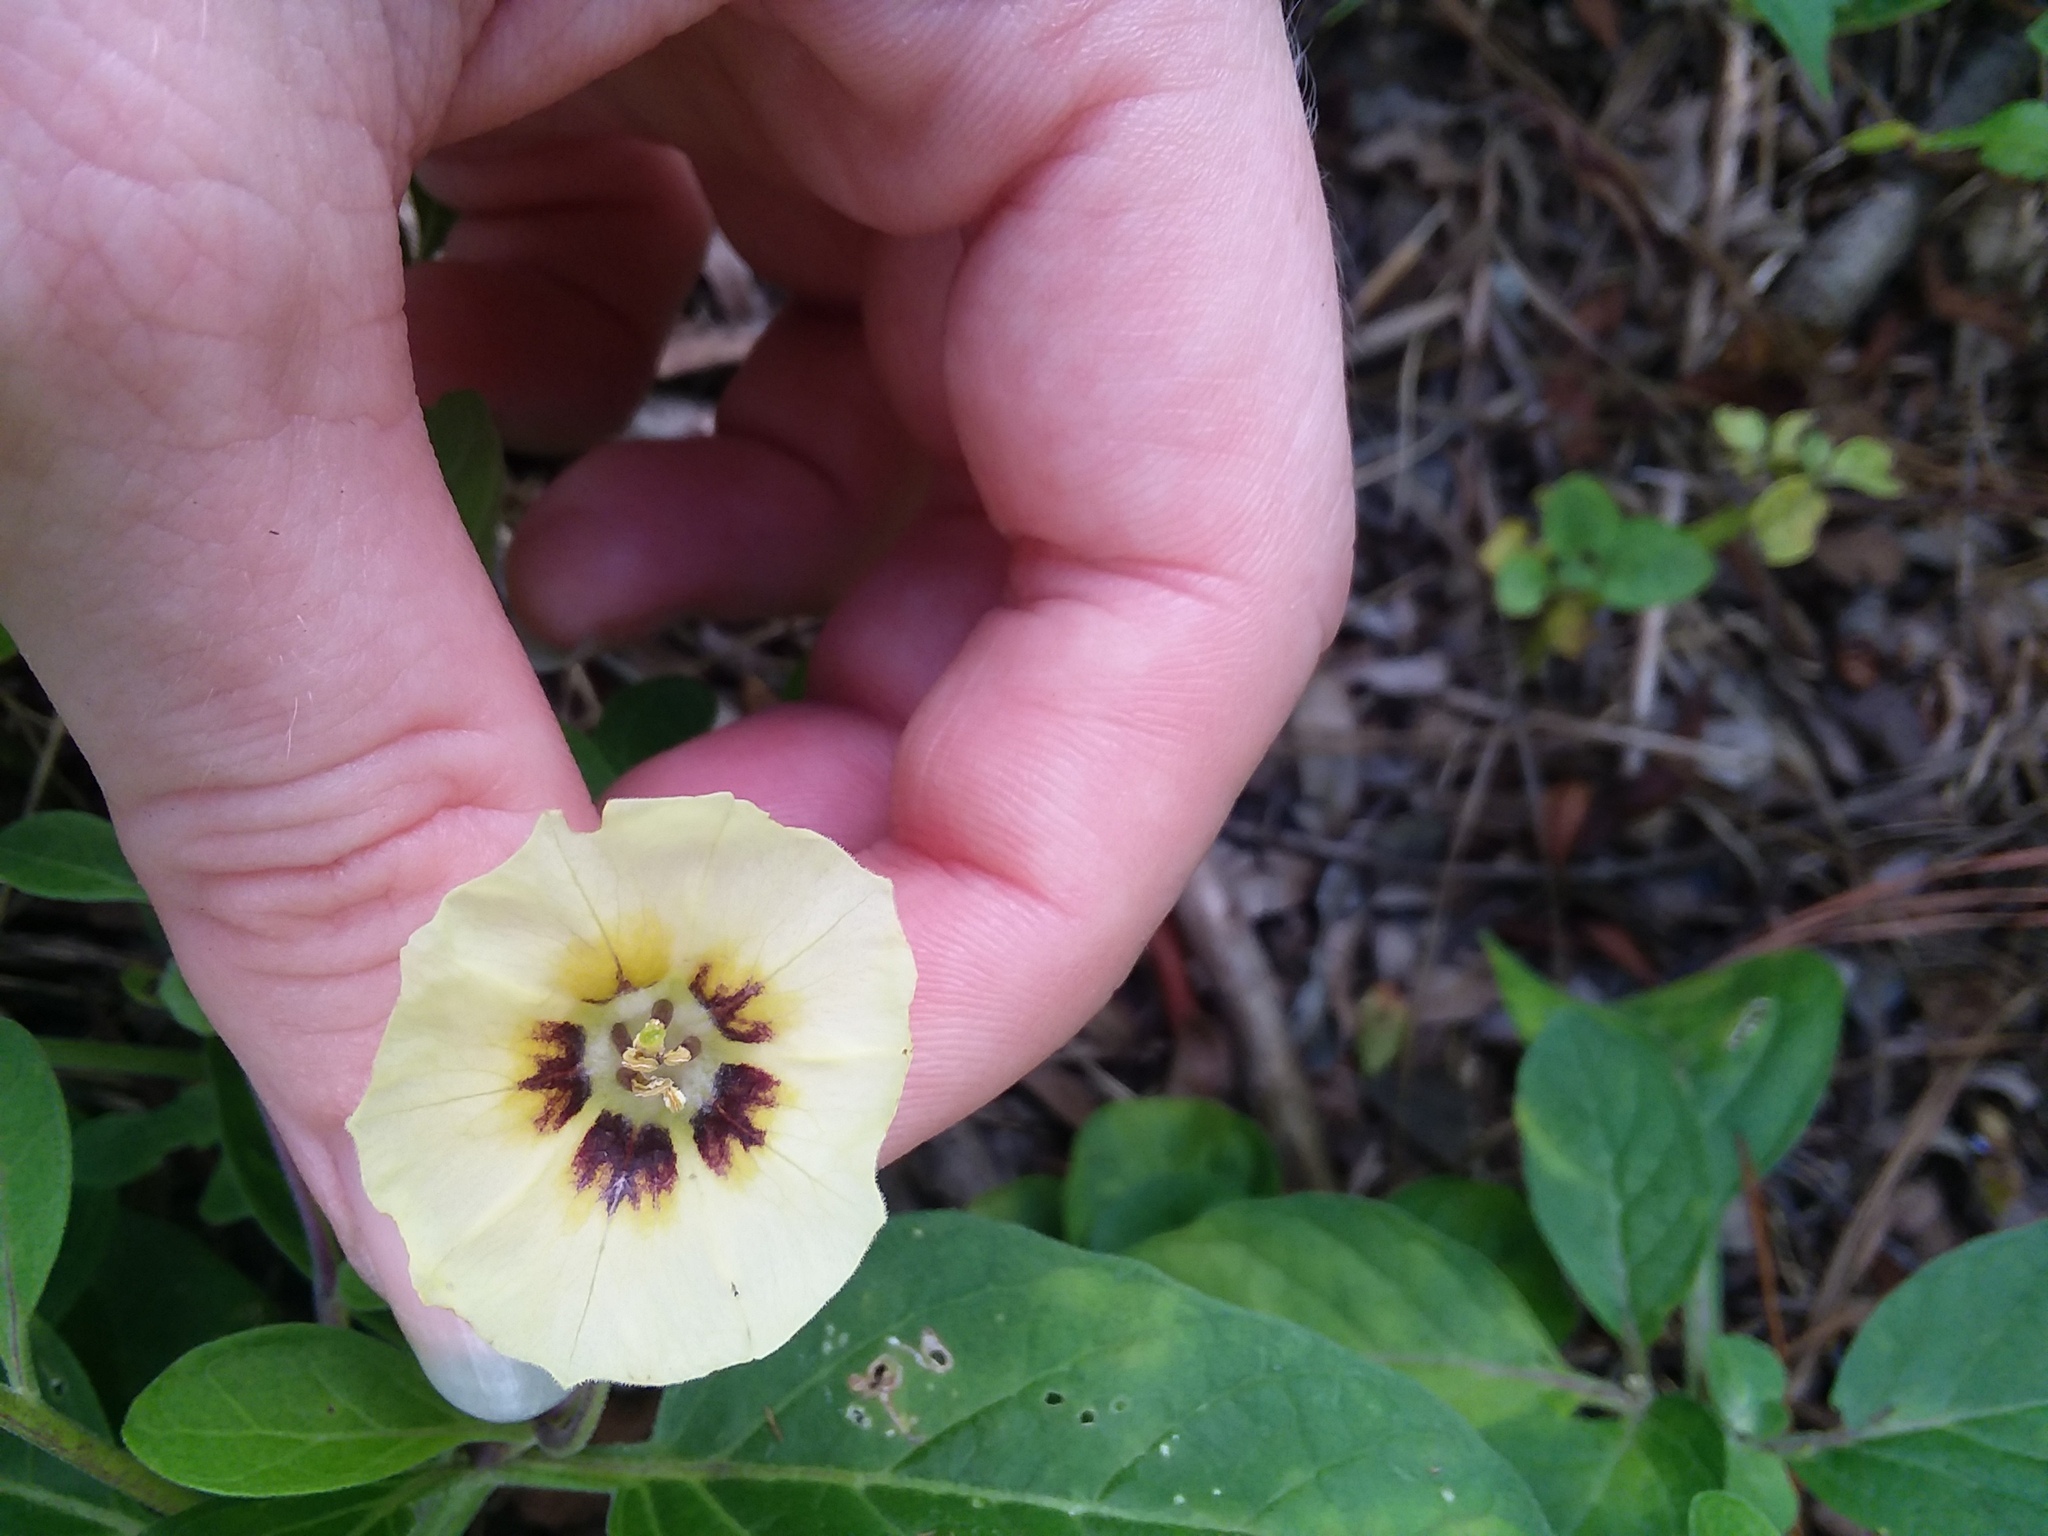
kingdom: Plantae
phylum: Tracheophyta
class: Magnoliopsida
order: Solanales
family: Solanaceae
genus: Physalis
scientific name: Physalis walteri
